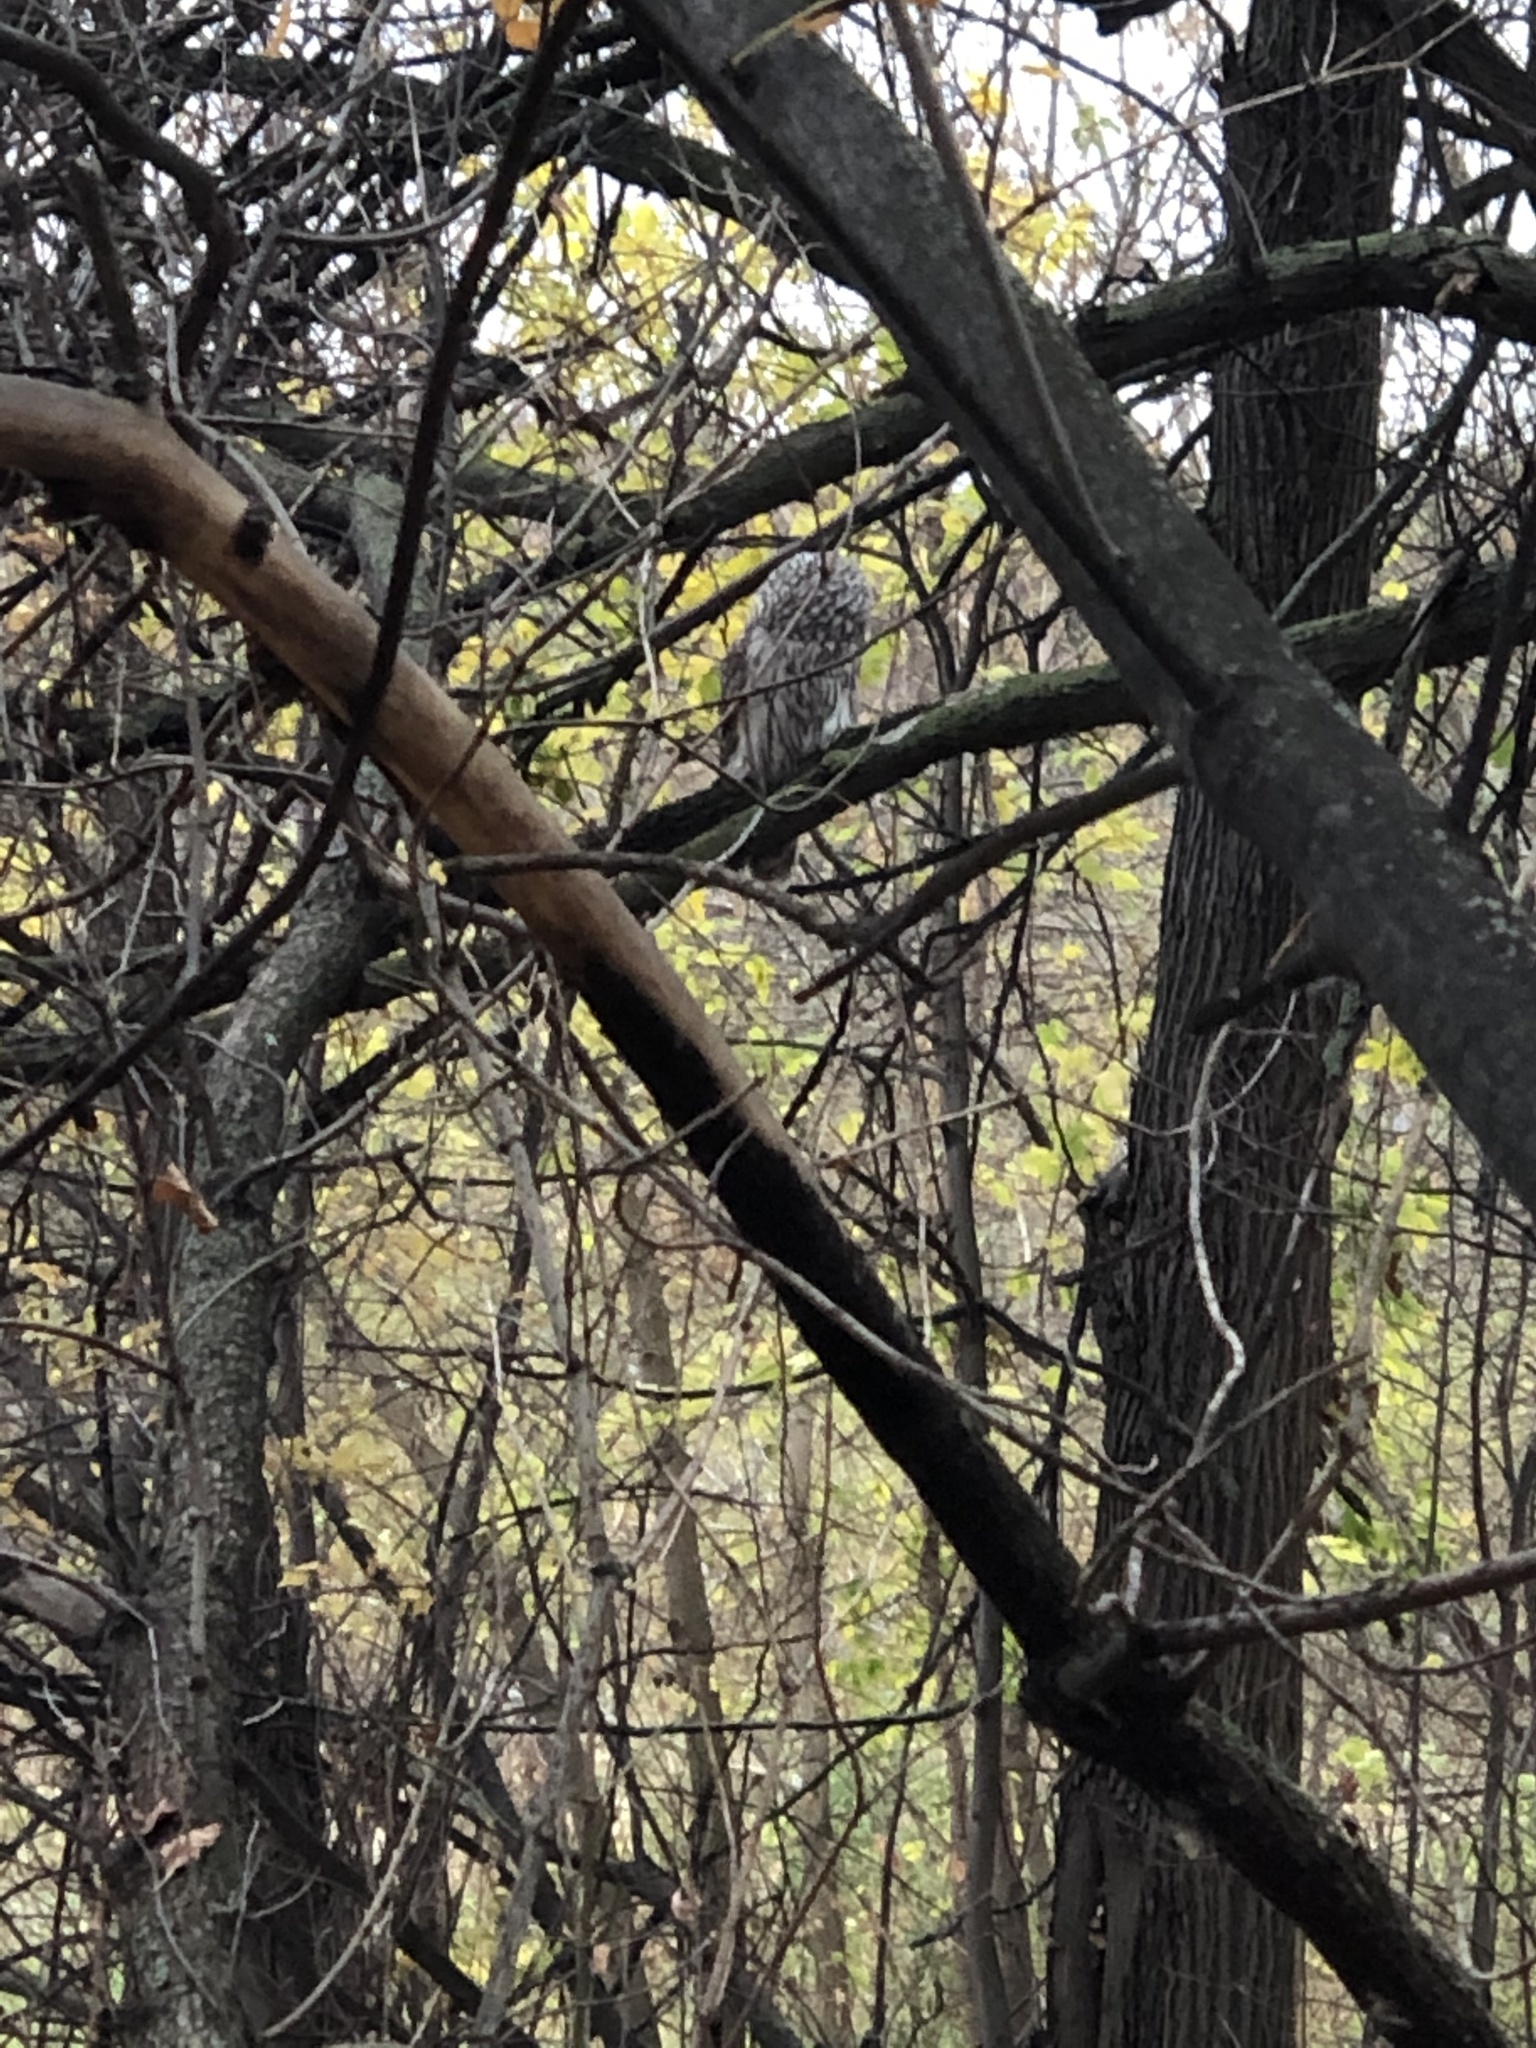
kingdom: Animalia
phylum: Chordata
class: Aves
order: Strigiformes
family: Strigidae
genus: Strix
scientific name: Strix uralensis
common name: Ural owl
